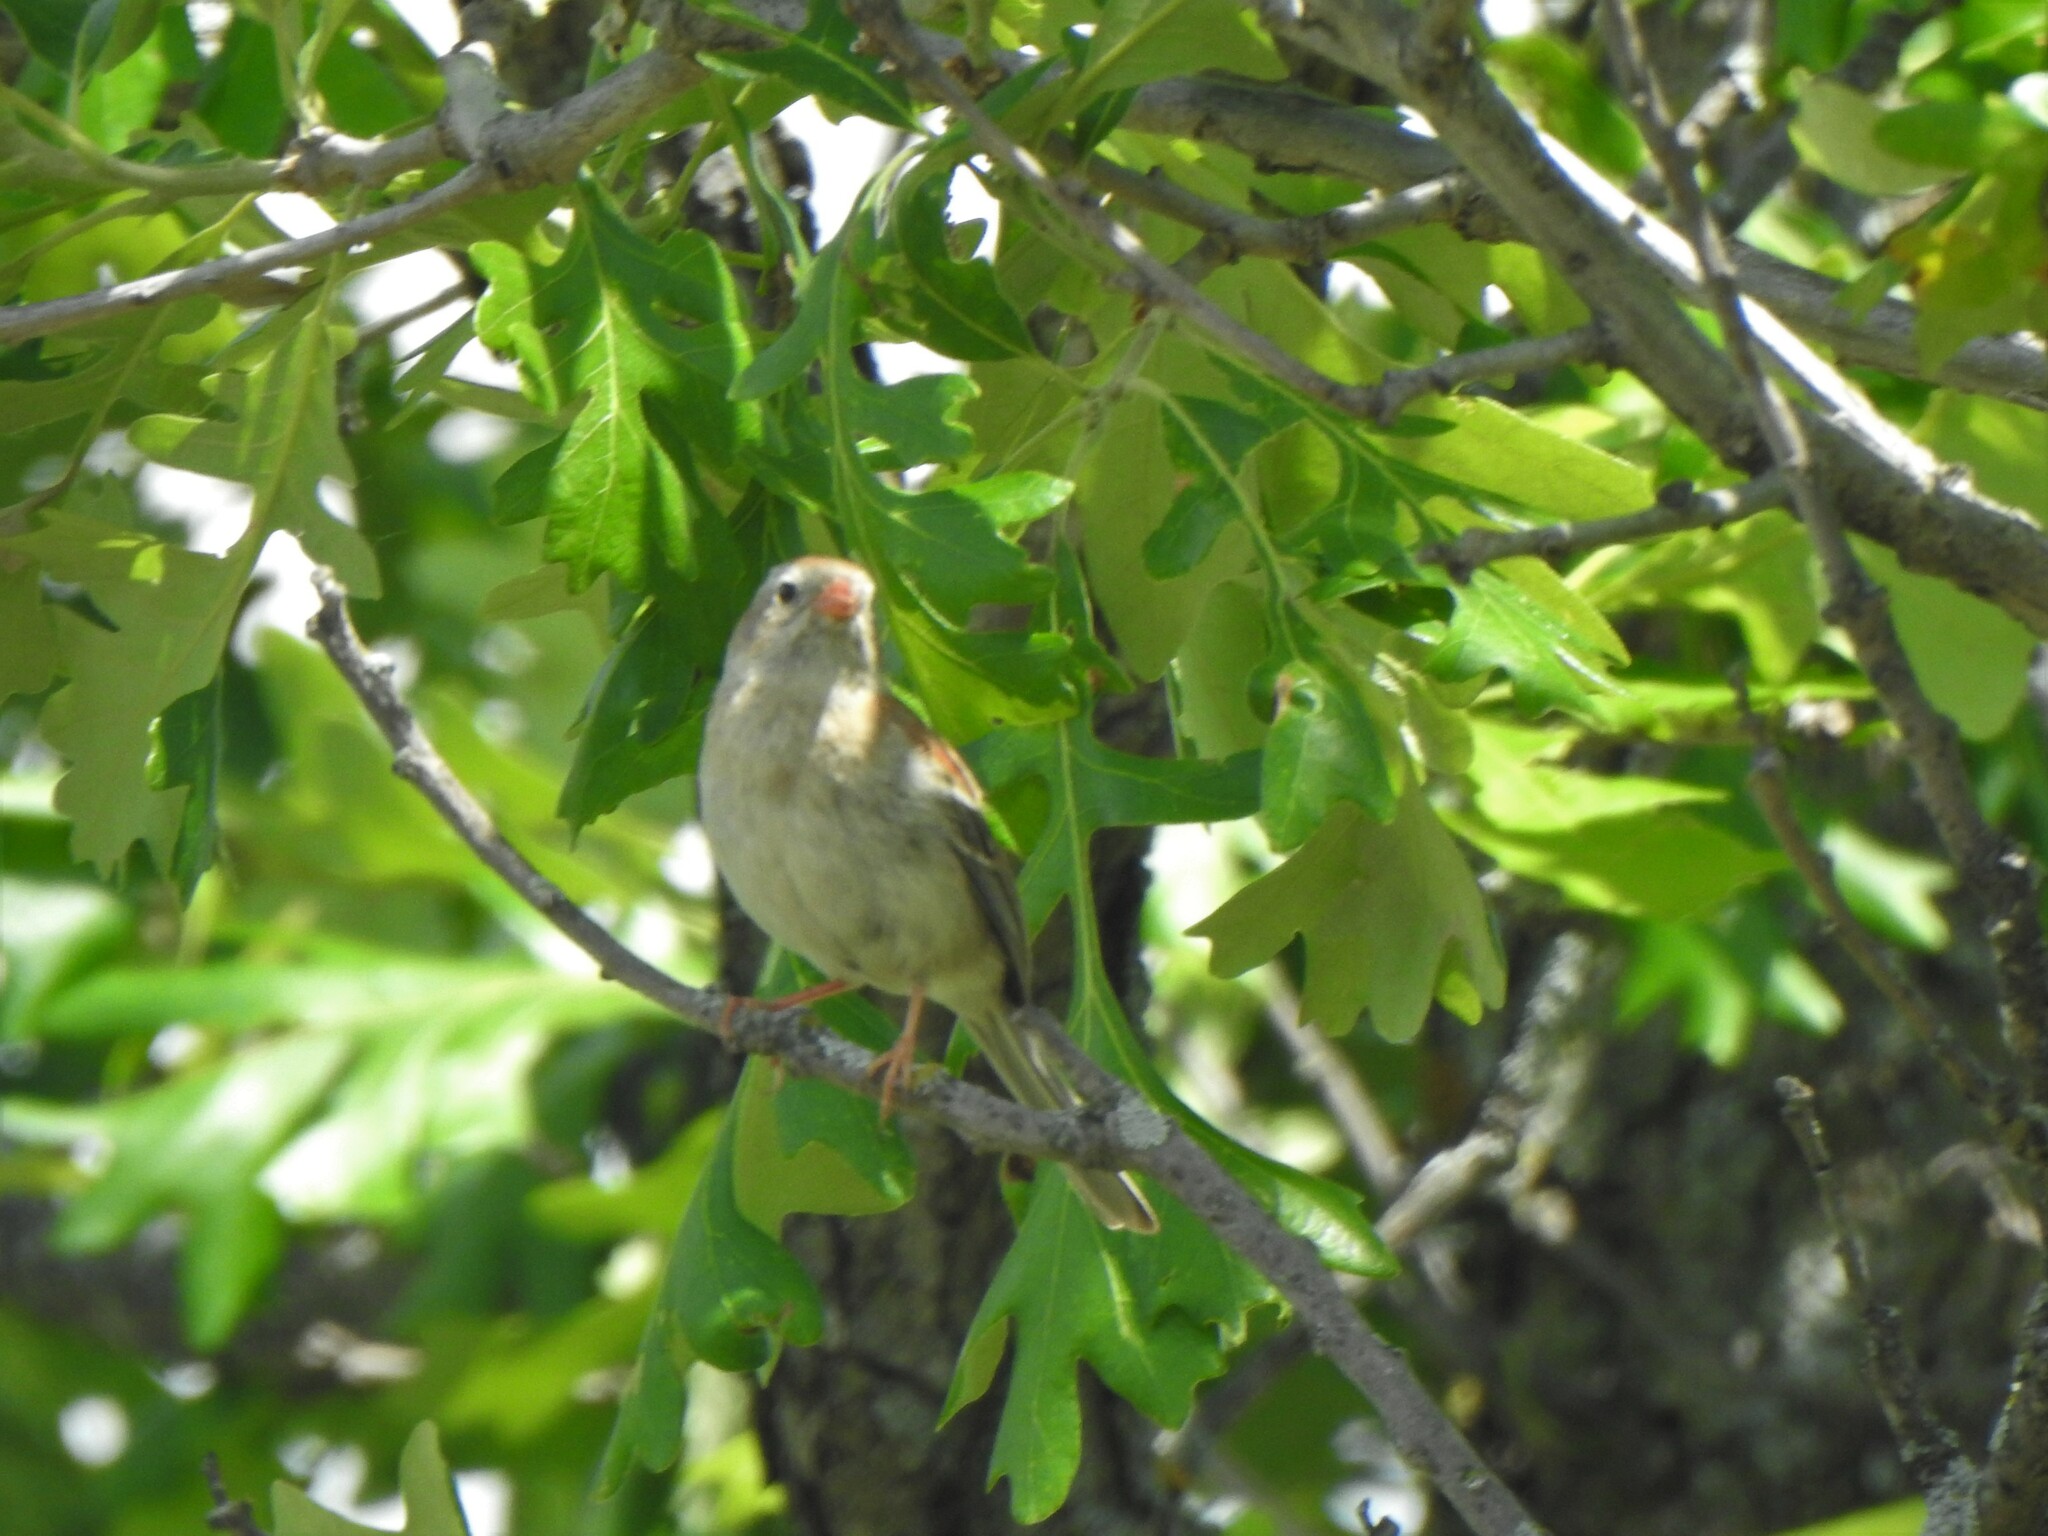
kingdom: Animalia
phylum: Chordata
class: Aves
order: Passeriformes
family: Passerellidae
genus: Spizella
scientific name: Spizella pusilla
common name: Field sparrow
